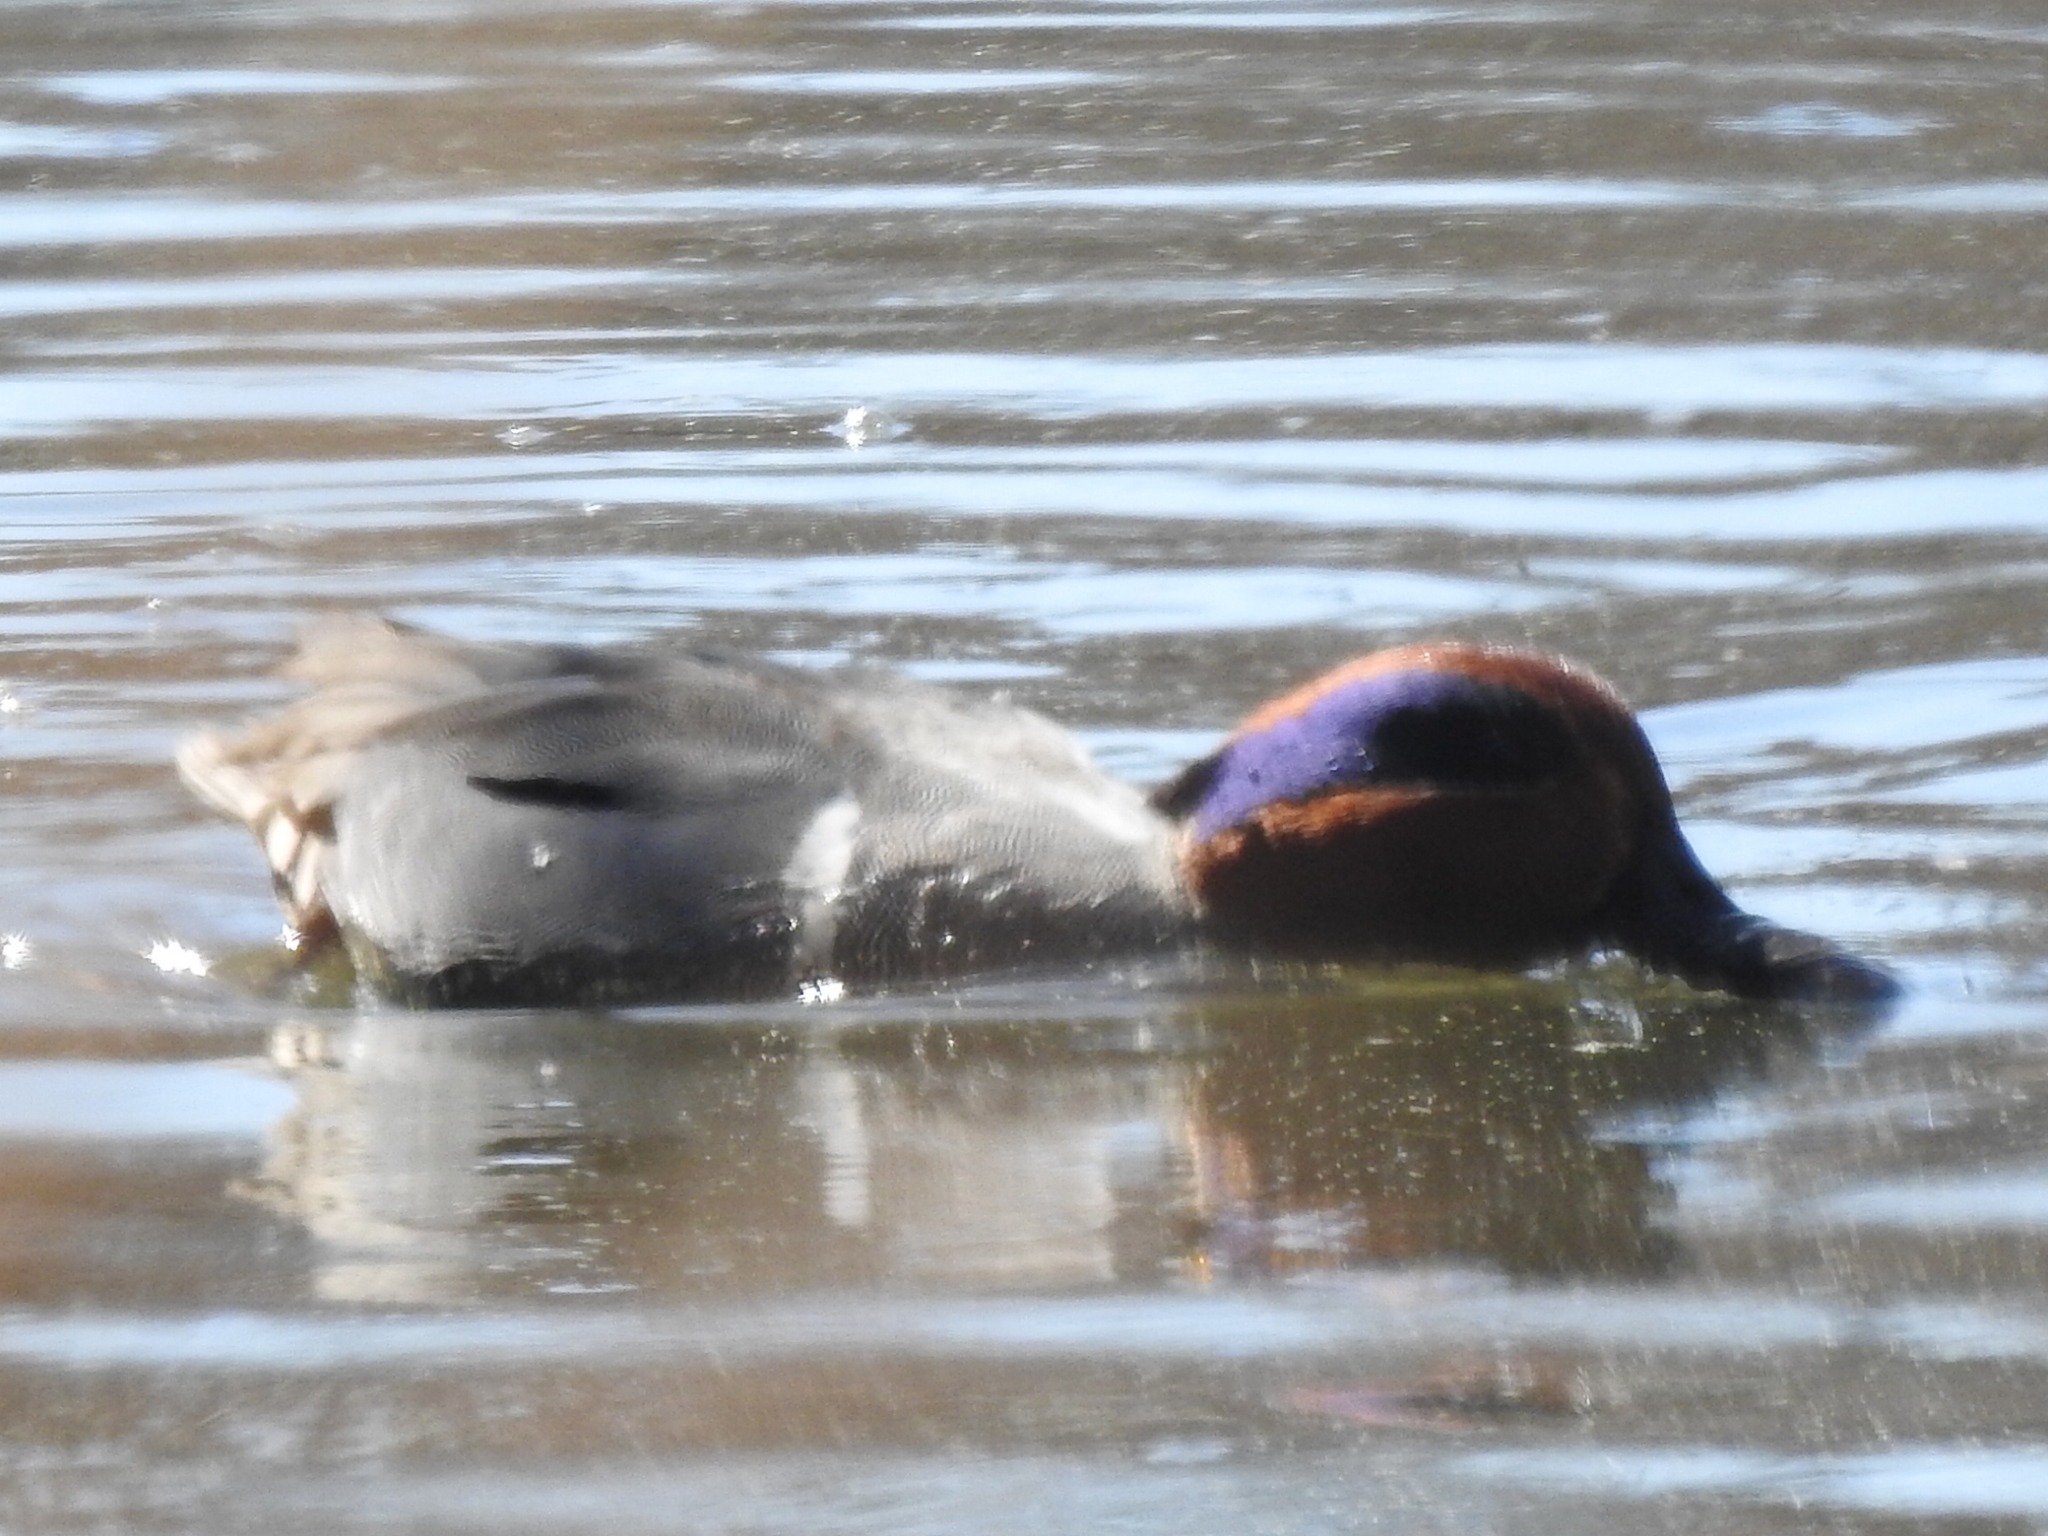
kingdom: Animalia
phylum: Chordata
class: Aves
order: Anseriformes
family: Anatidae
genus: Anas
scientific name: Anas crecca
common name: Eurasian teal
